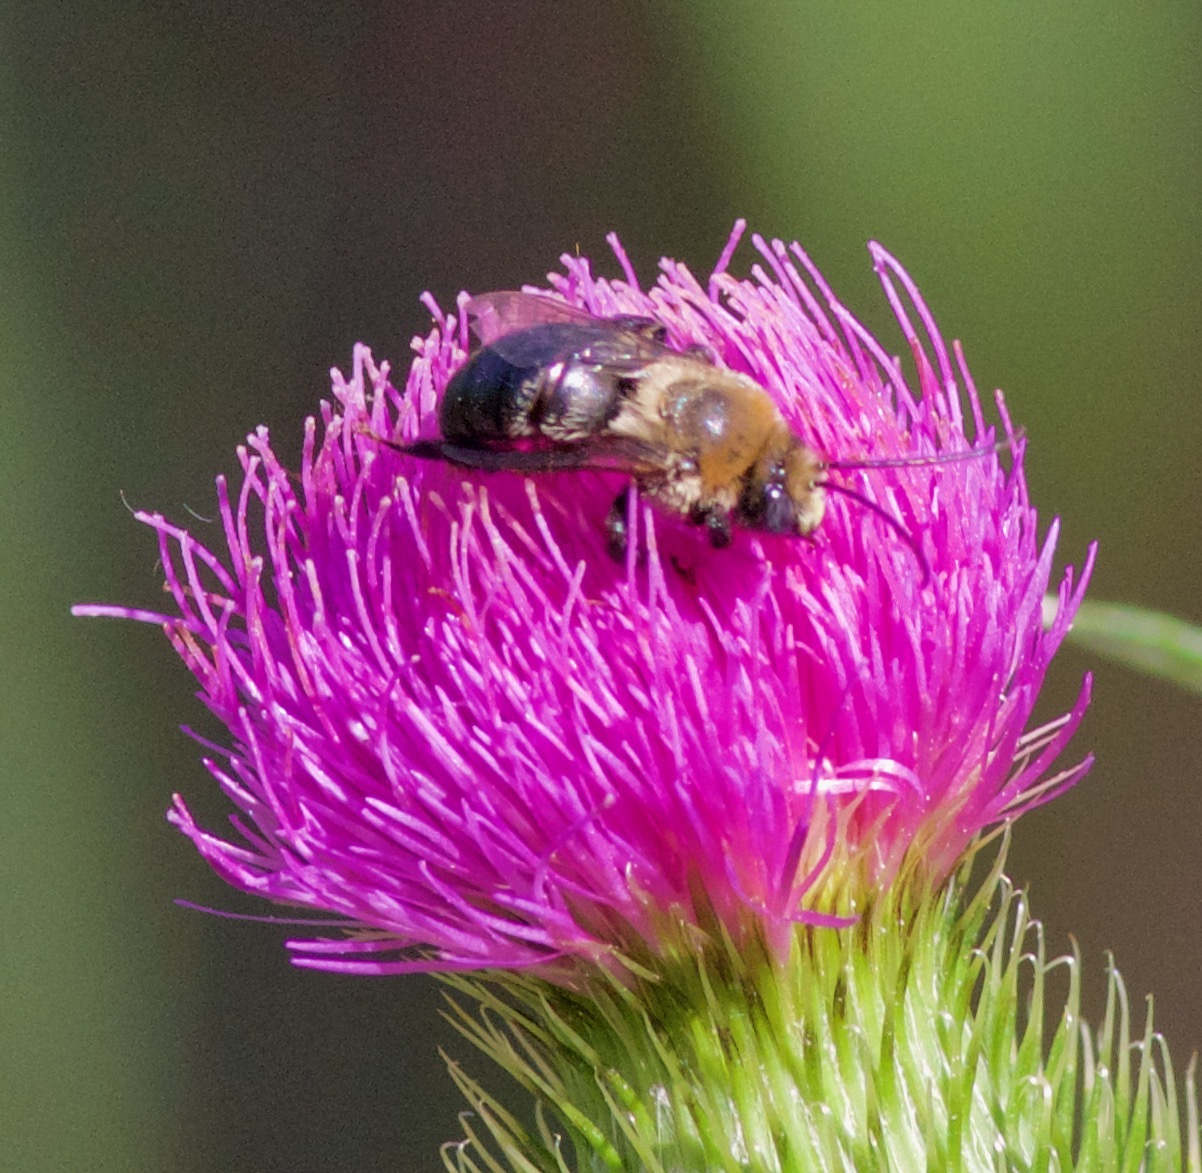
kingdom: Animalia
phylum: Arthropoda
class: Insecta
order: Hymenoptera
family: Apidae
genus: Melissodes
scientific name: Melissodes desponsus
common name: Thistle long-horned bee
